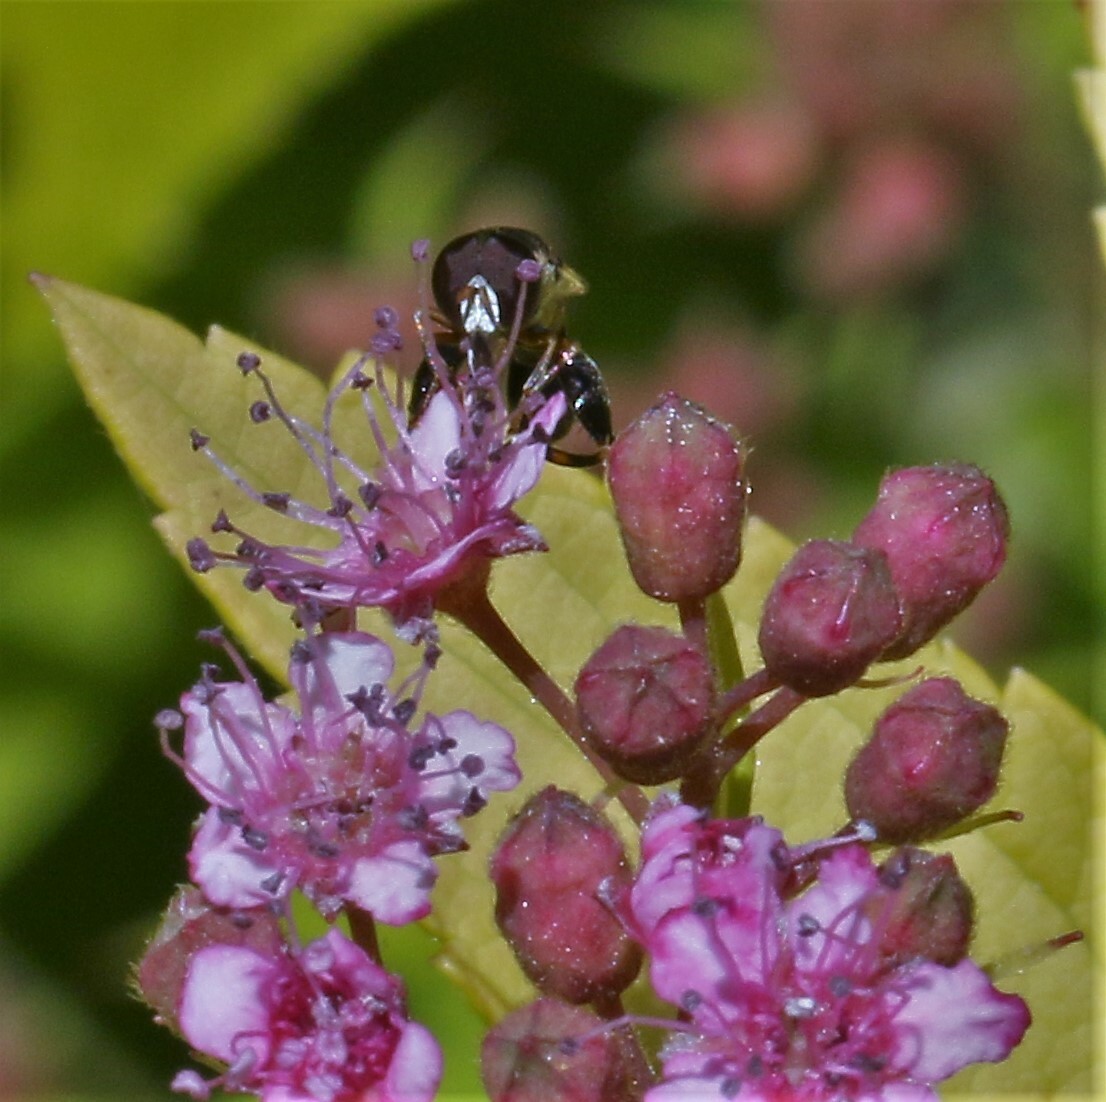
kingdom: Animalia
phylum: Arthropoda
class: Insecta
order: Diptera
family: Syrphidae
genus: Syritta
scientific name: Syritta pipiens
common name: Hover fly
